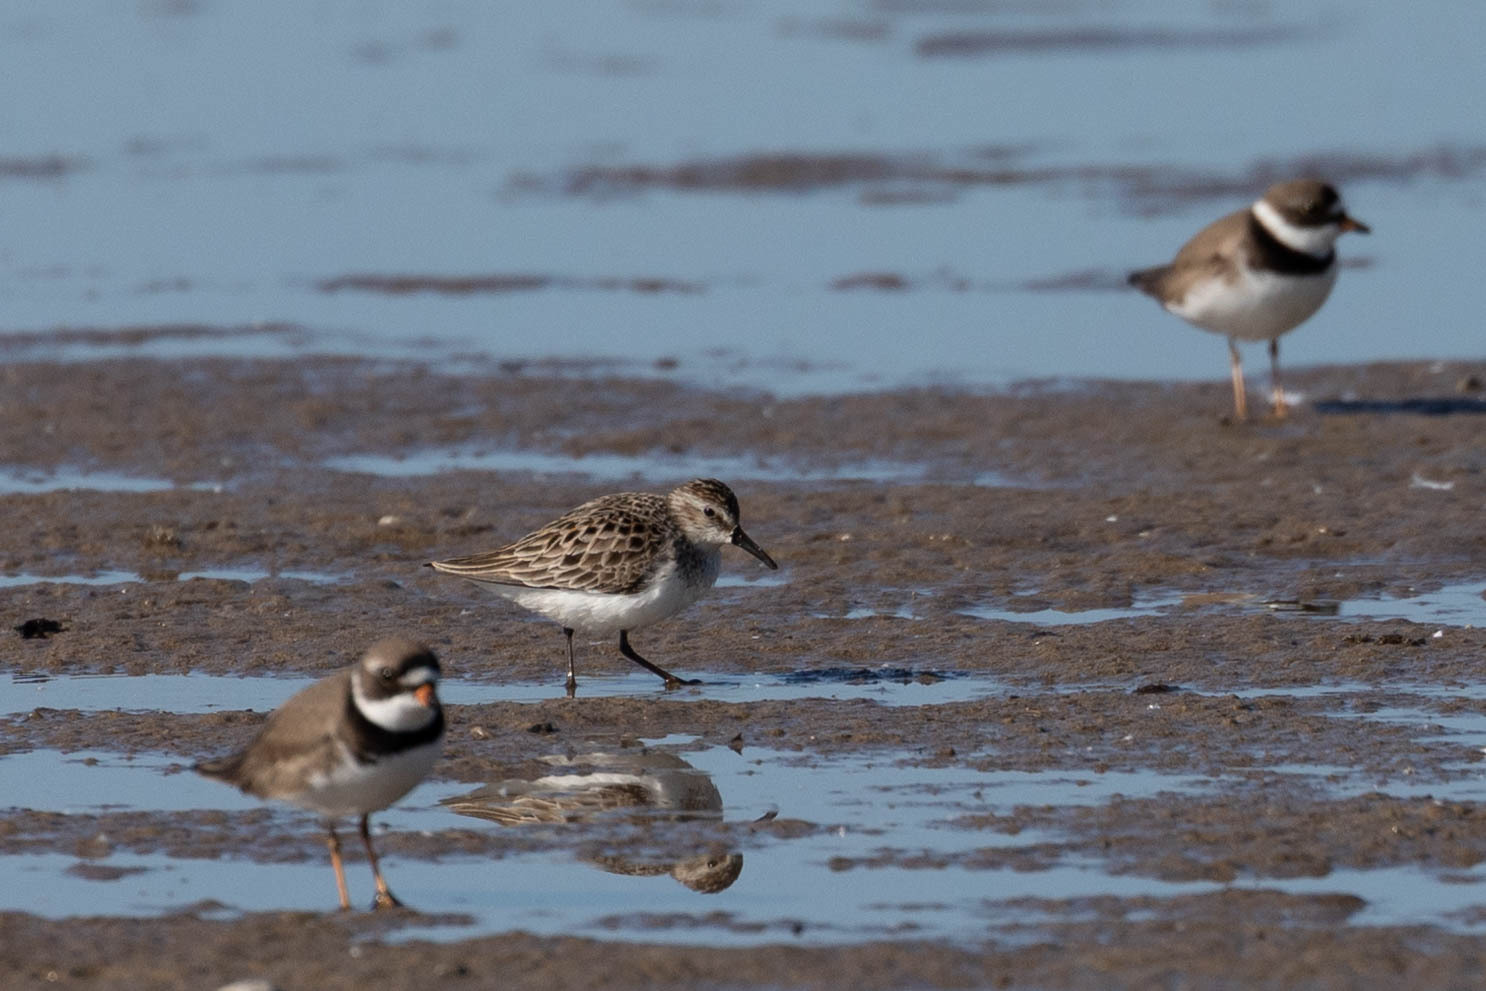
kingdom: Animalia
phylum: Chordata
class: Aves
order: Charadriiformes
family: Scolopacidae
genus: Calidris
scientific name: Calidris pusilla
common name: Semipalmated sandpiper
